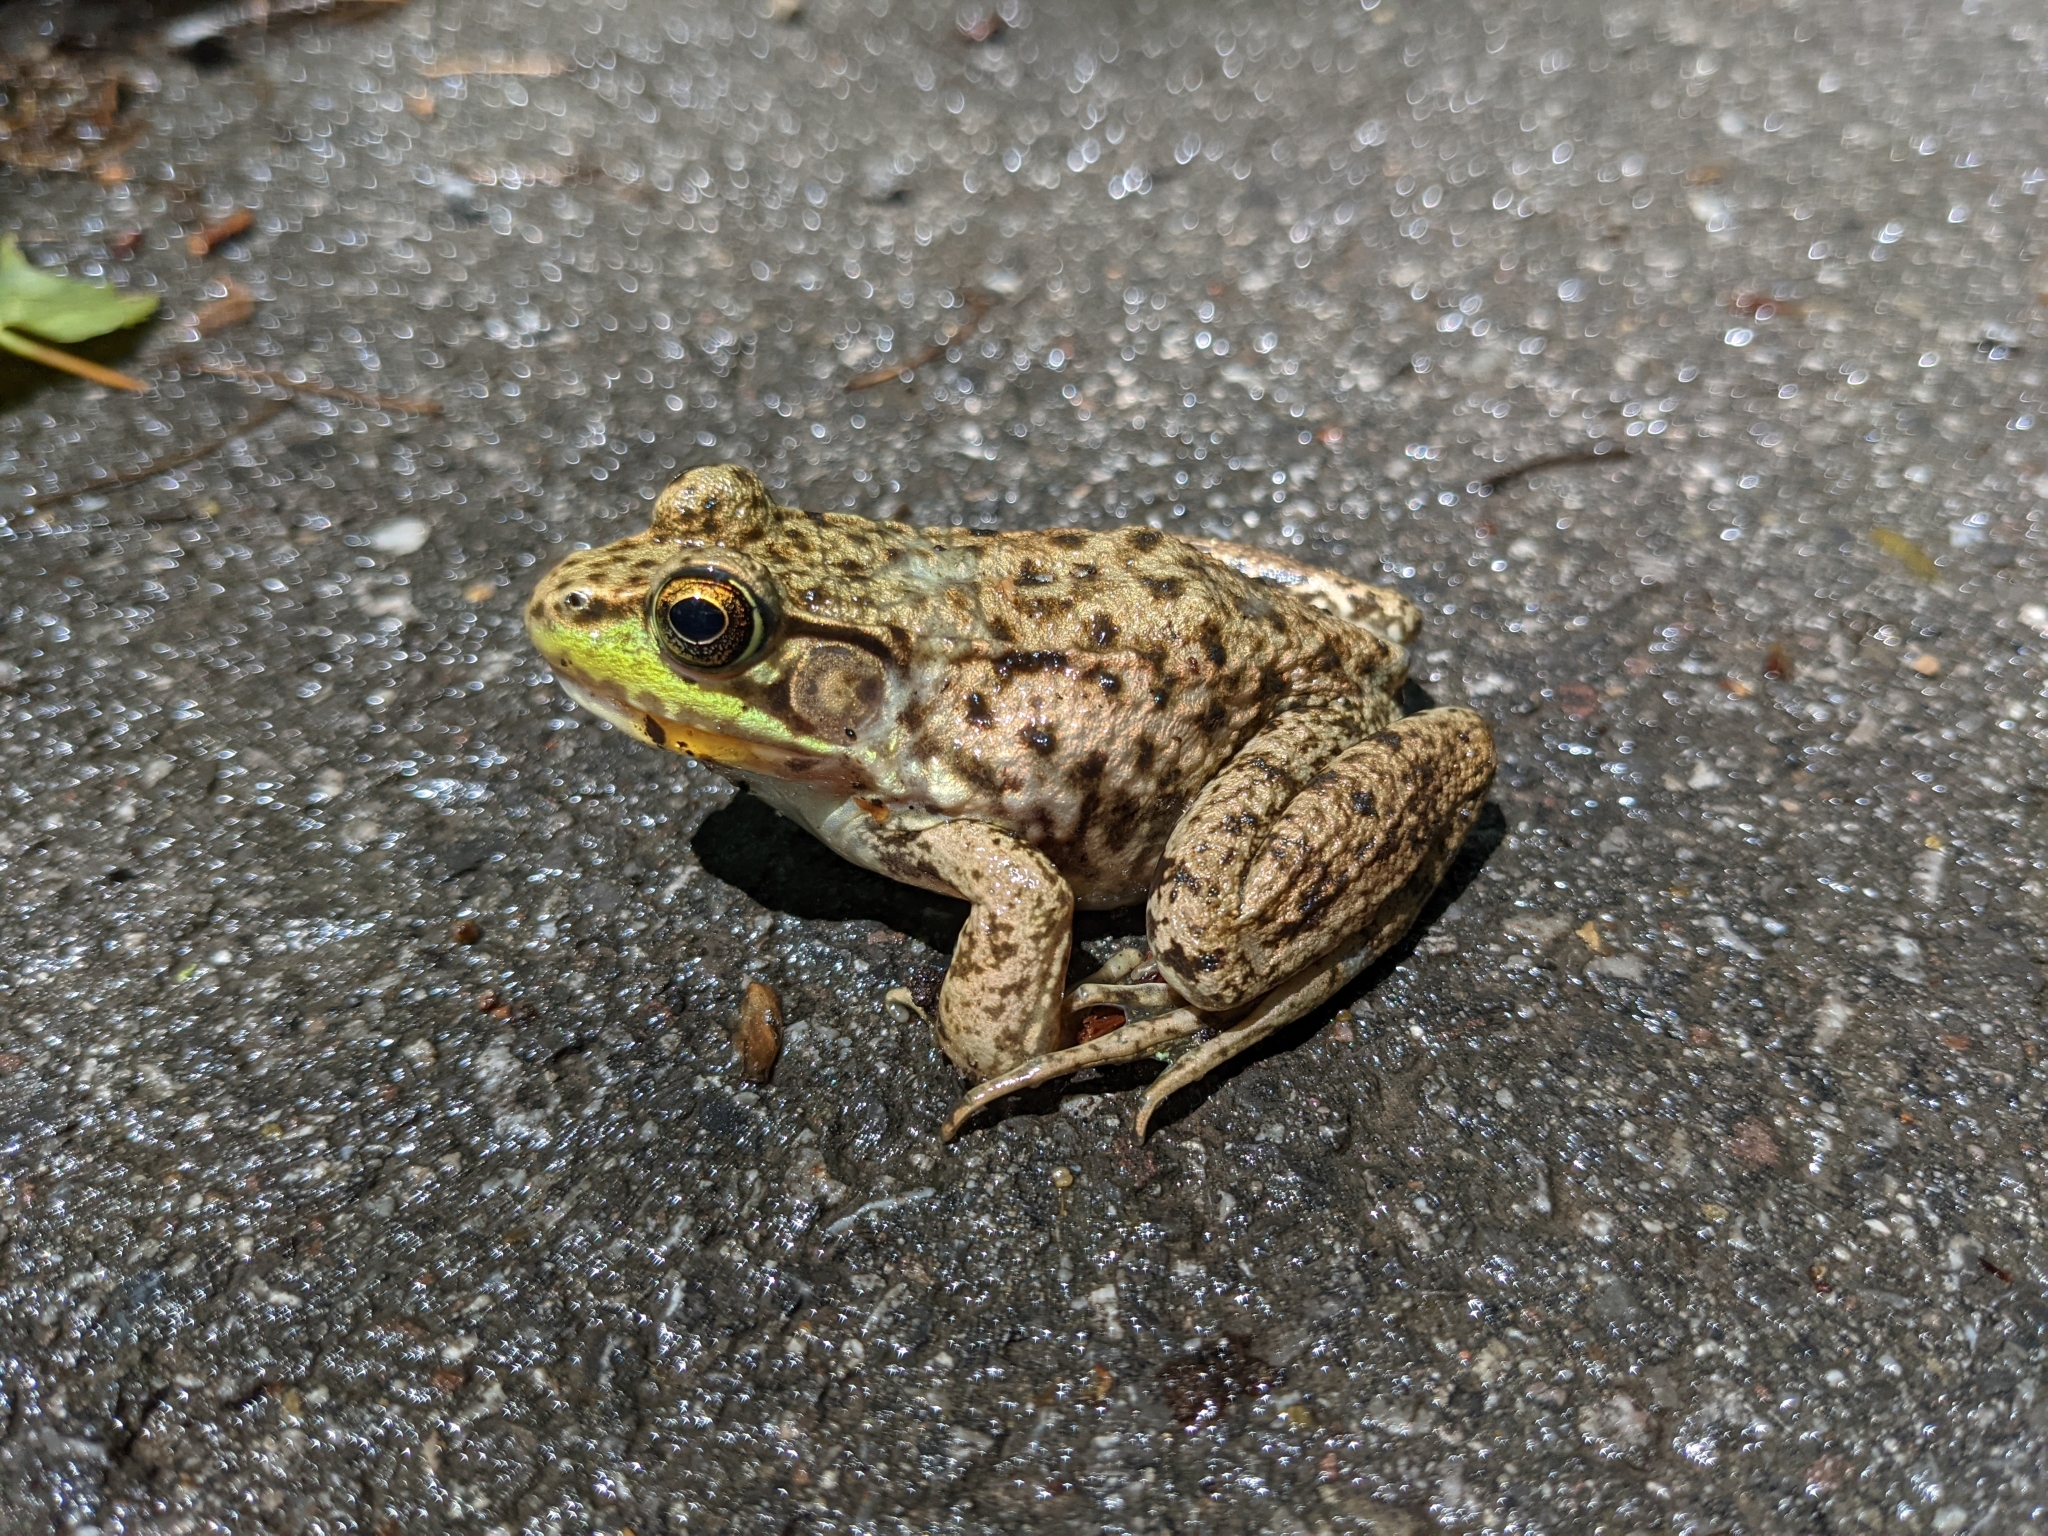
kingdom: Animalia
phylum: Chordata
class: Amphibia
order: Anura
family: Ranidae
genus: Lithobates
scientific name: Lithobates clamitans
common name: Green frog
